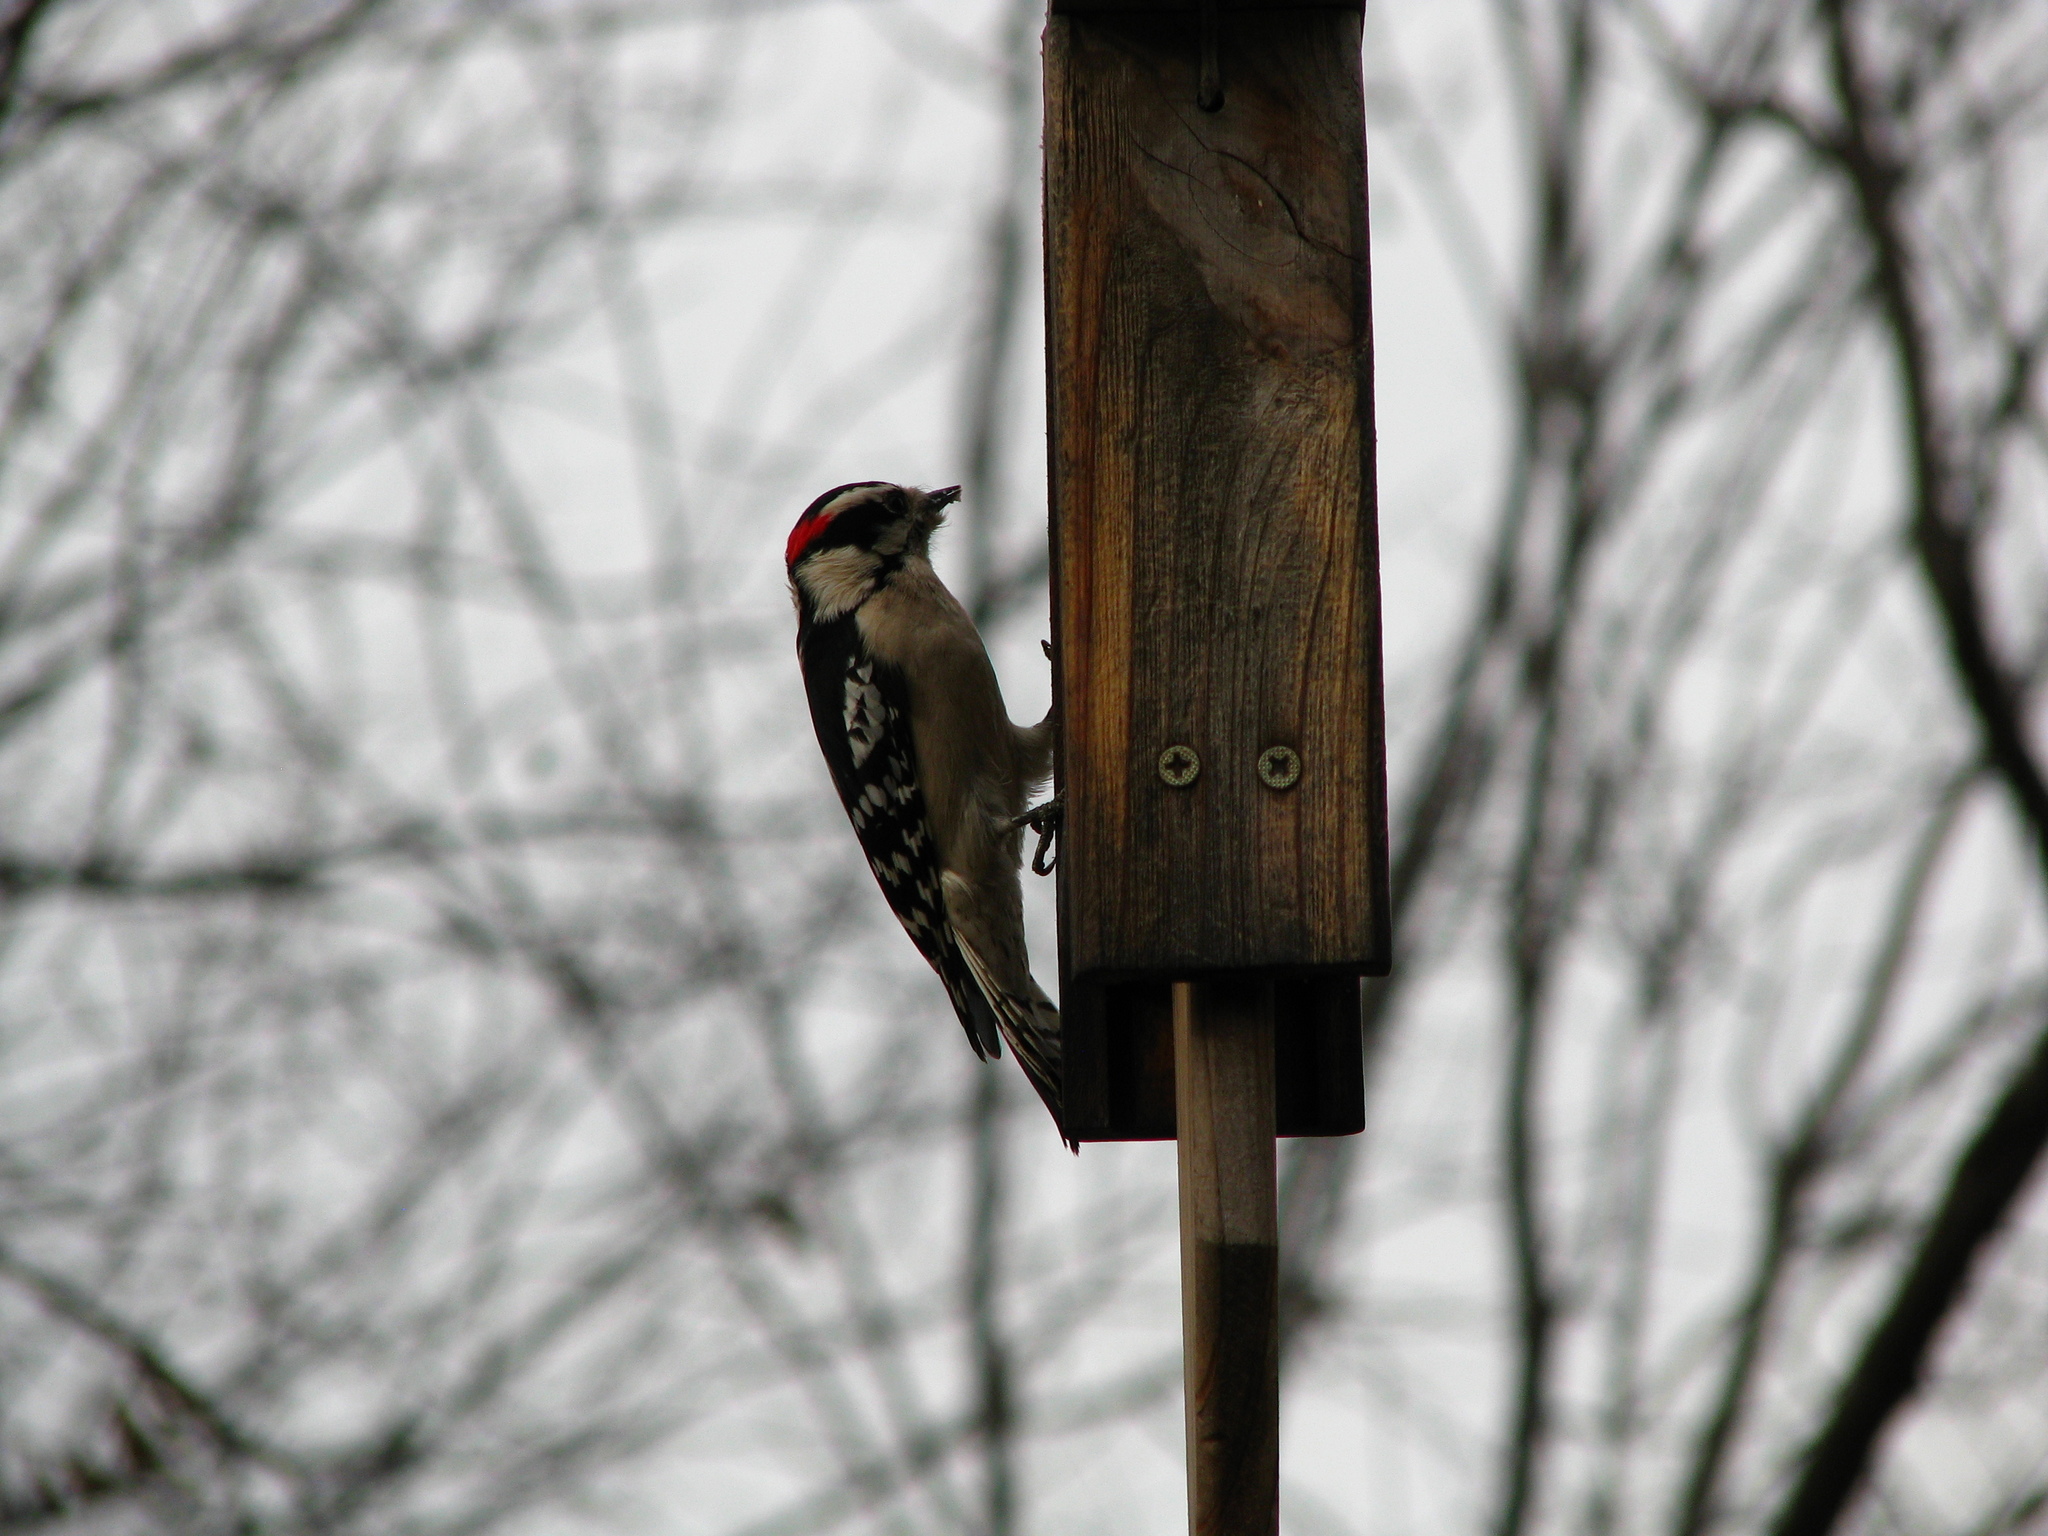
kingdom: Animalia
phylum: Chordata
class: Aves
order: Piciformes
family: Picidae
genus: Dryobates
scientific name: Dryobates pubescens
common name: Downy woodpecker
